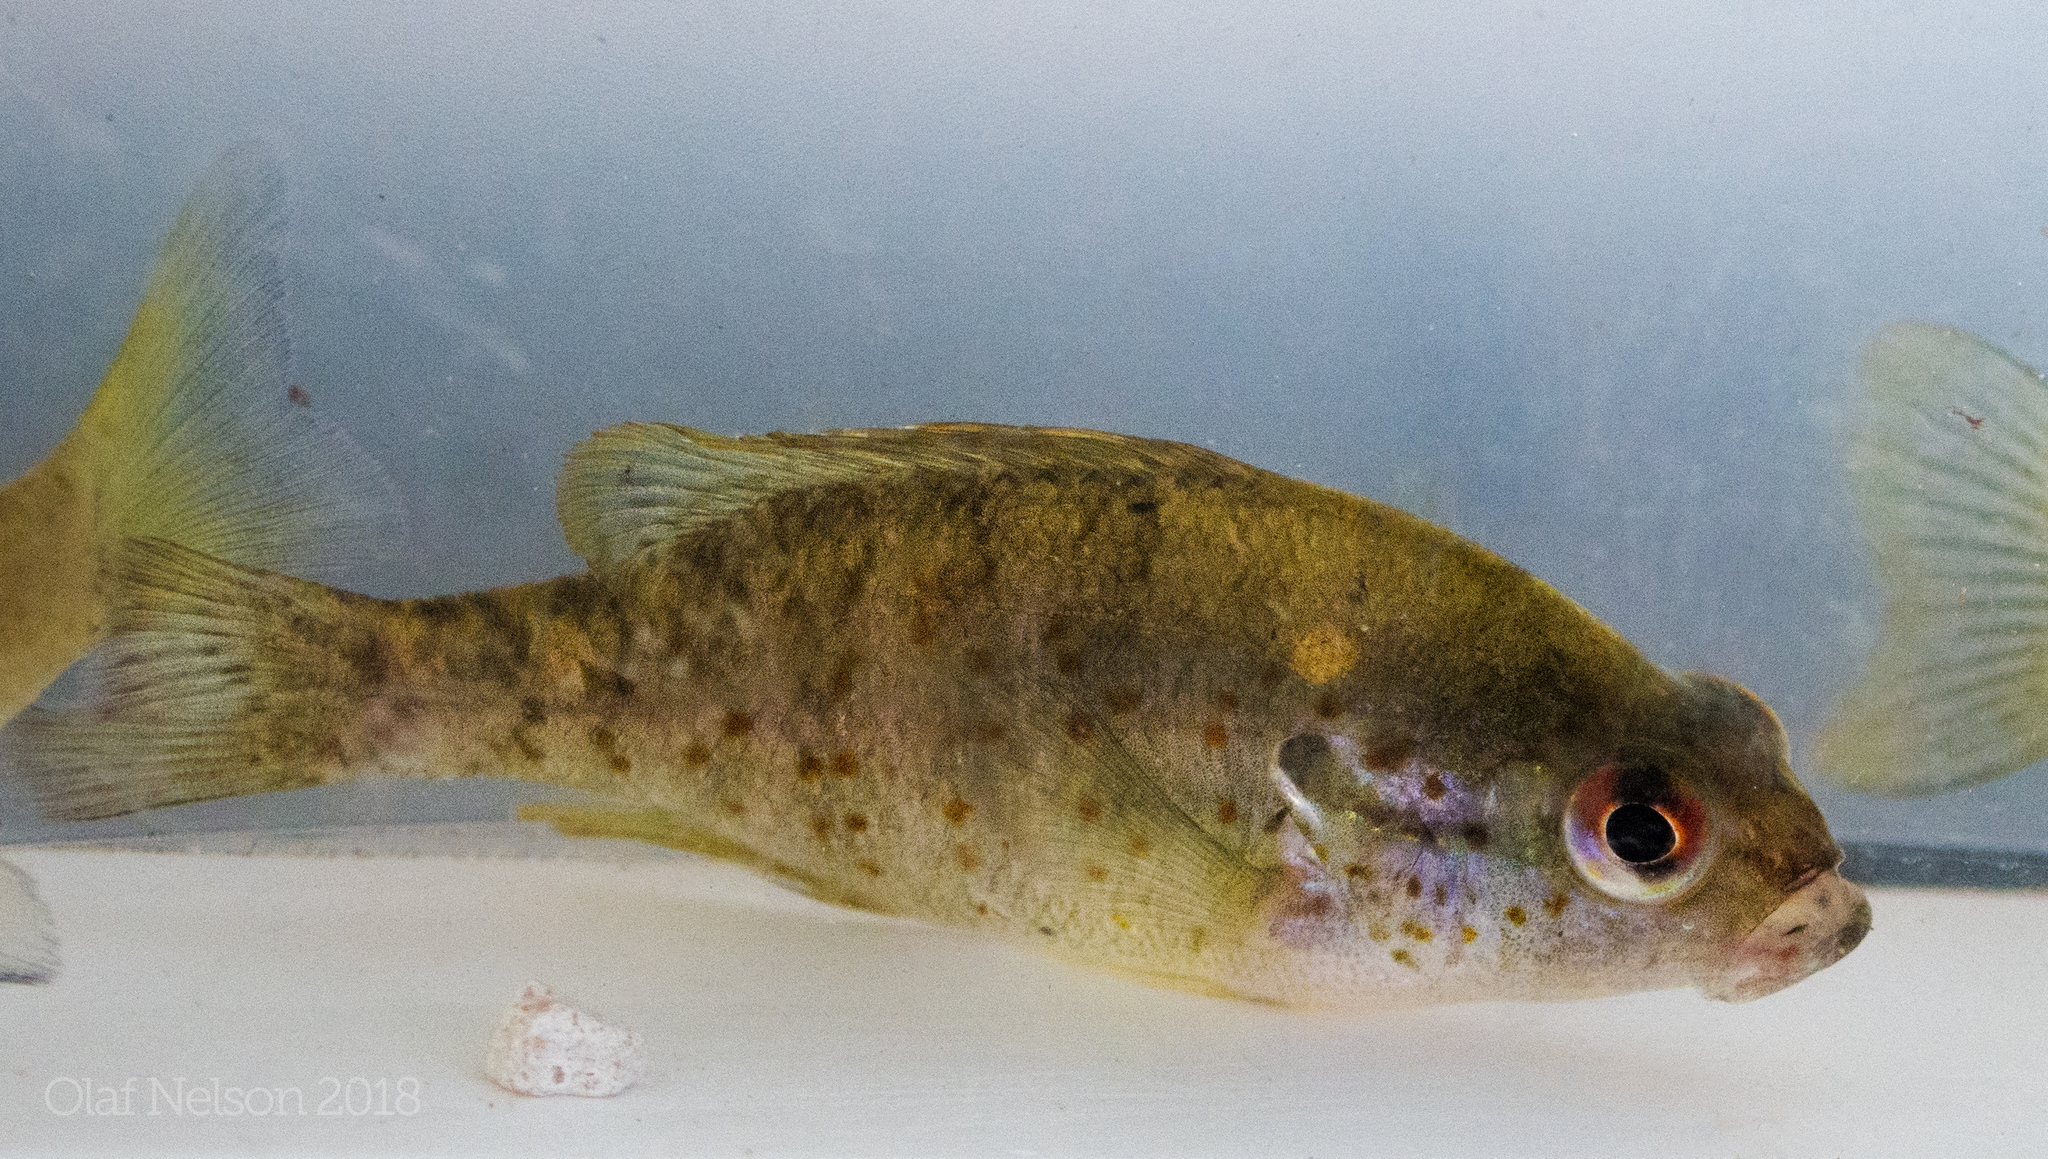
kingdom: Animalia
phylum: Chordata
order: Perciformes
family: Centrarchidae
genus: Lepomis
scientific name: Lepomis humilis
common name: Orangespotted sunfish
